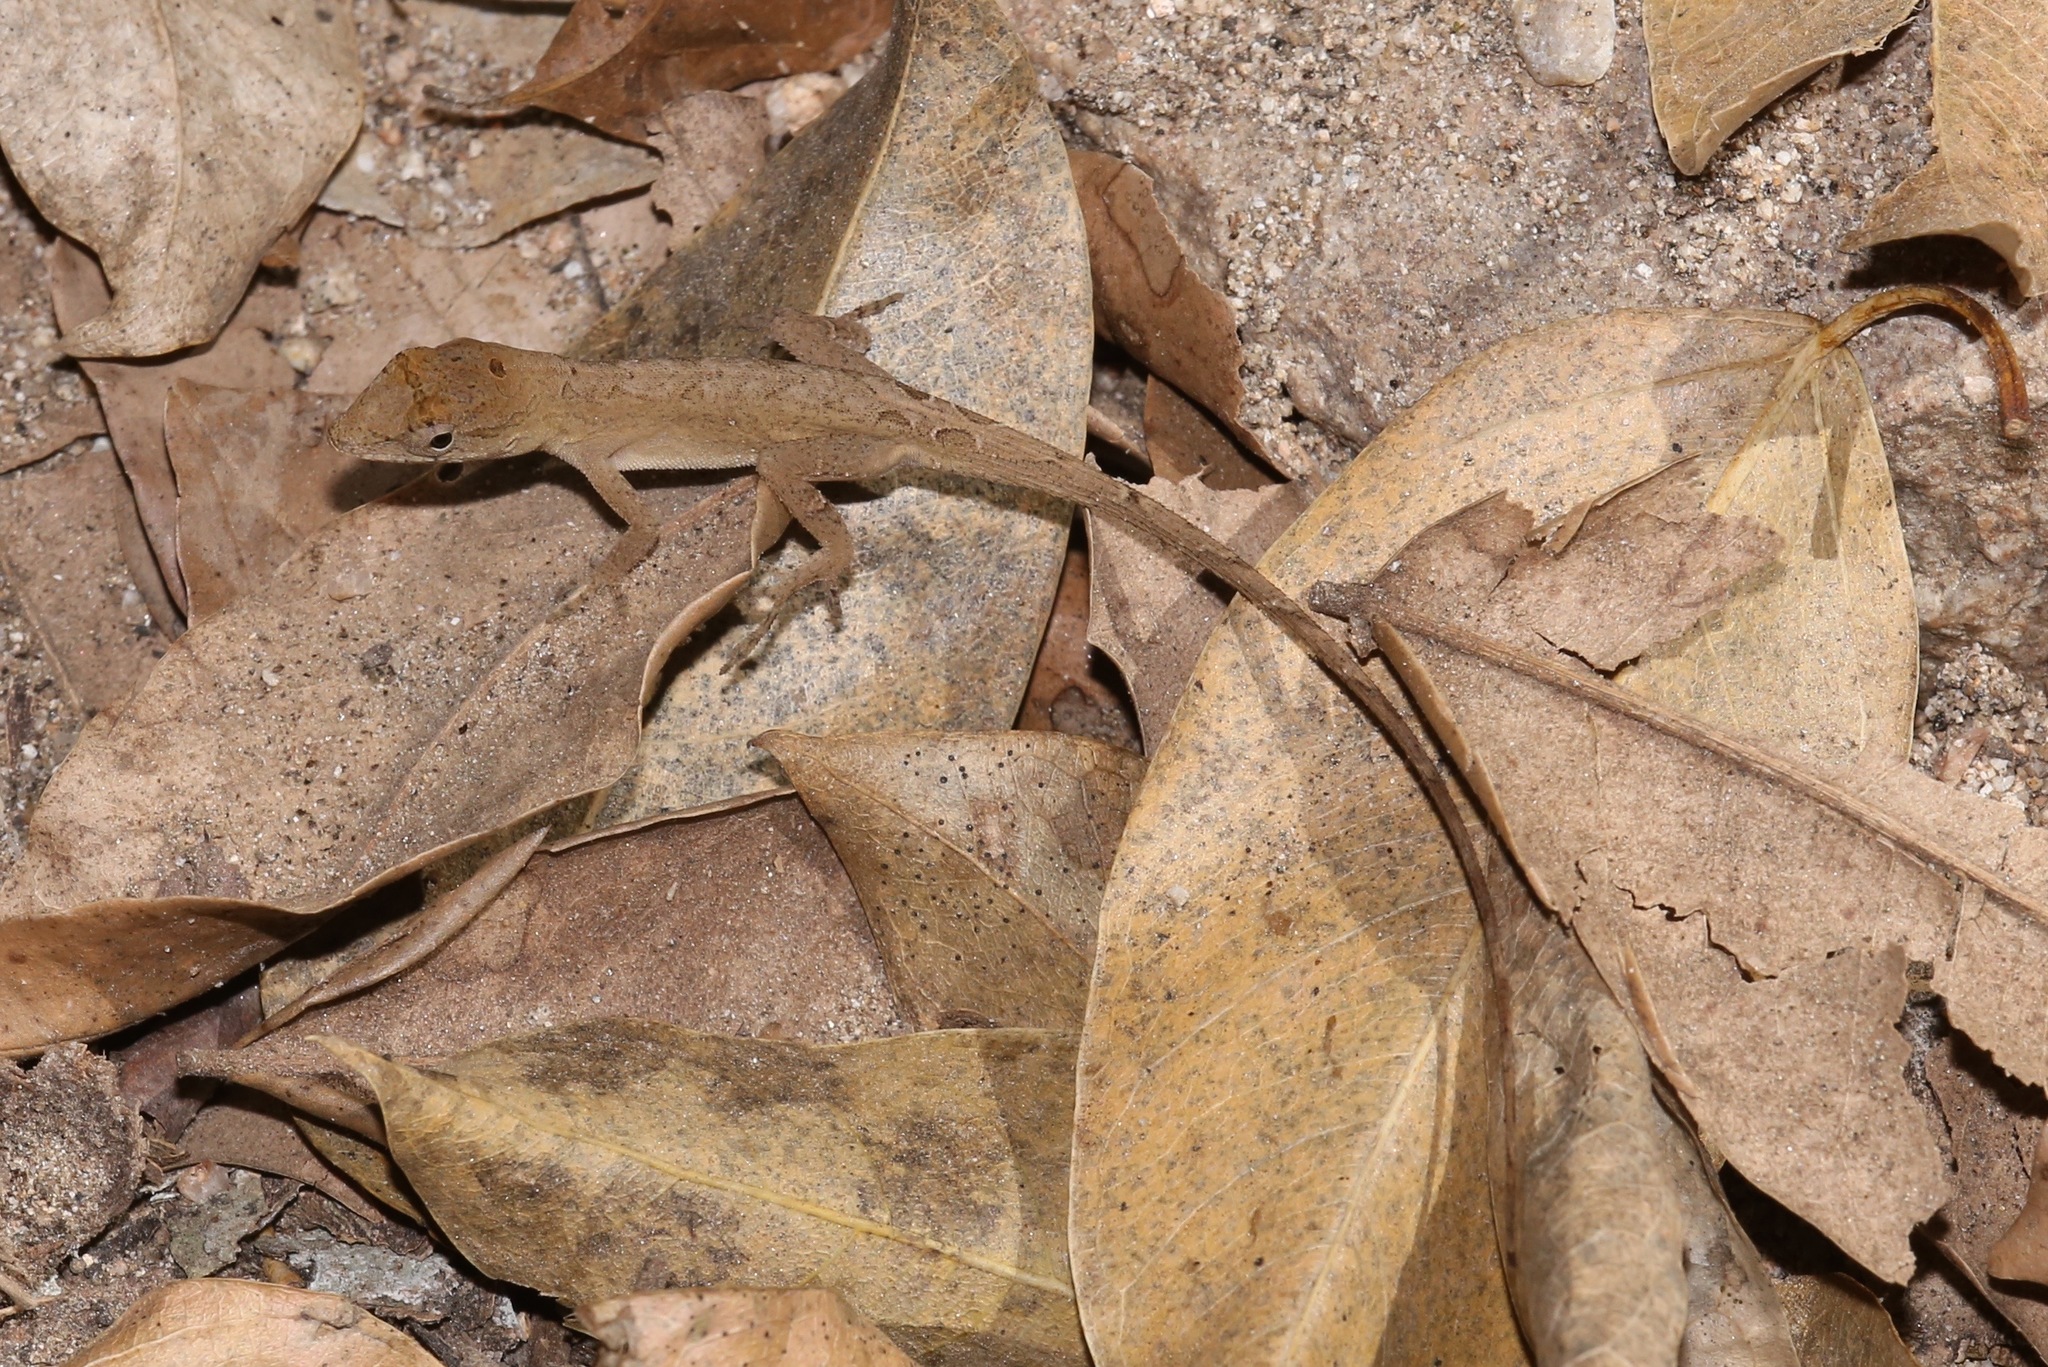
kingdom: Animalia
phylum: Chordata
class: Squamata
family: Dactyloidae
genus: Anolis
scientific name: Anolis nebulosus
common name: Clouded anole
